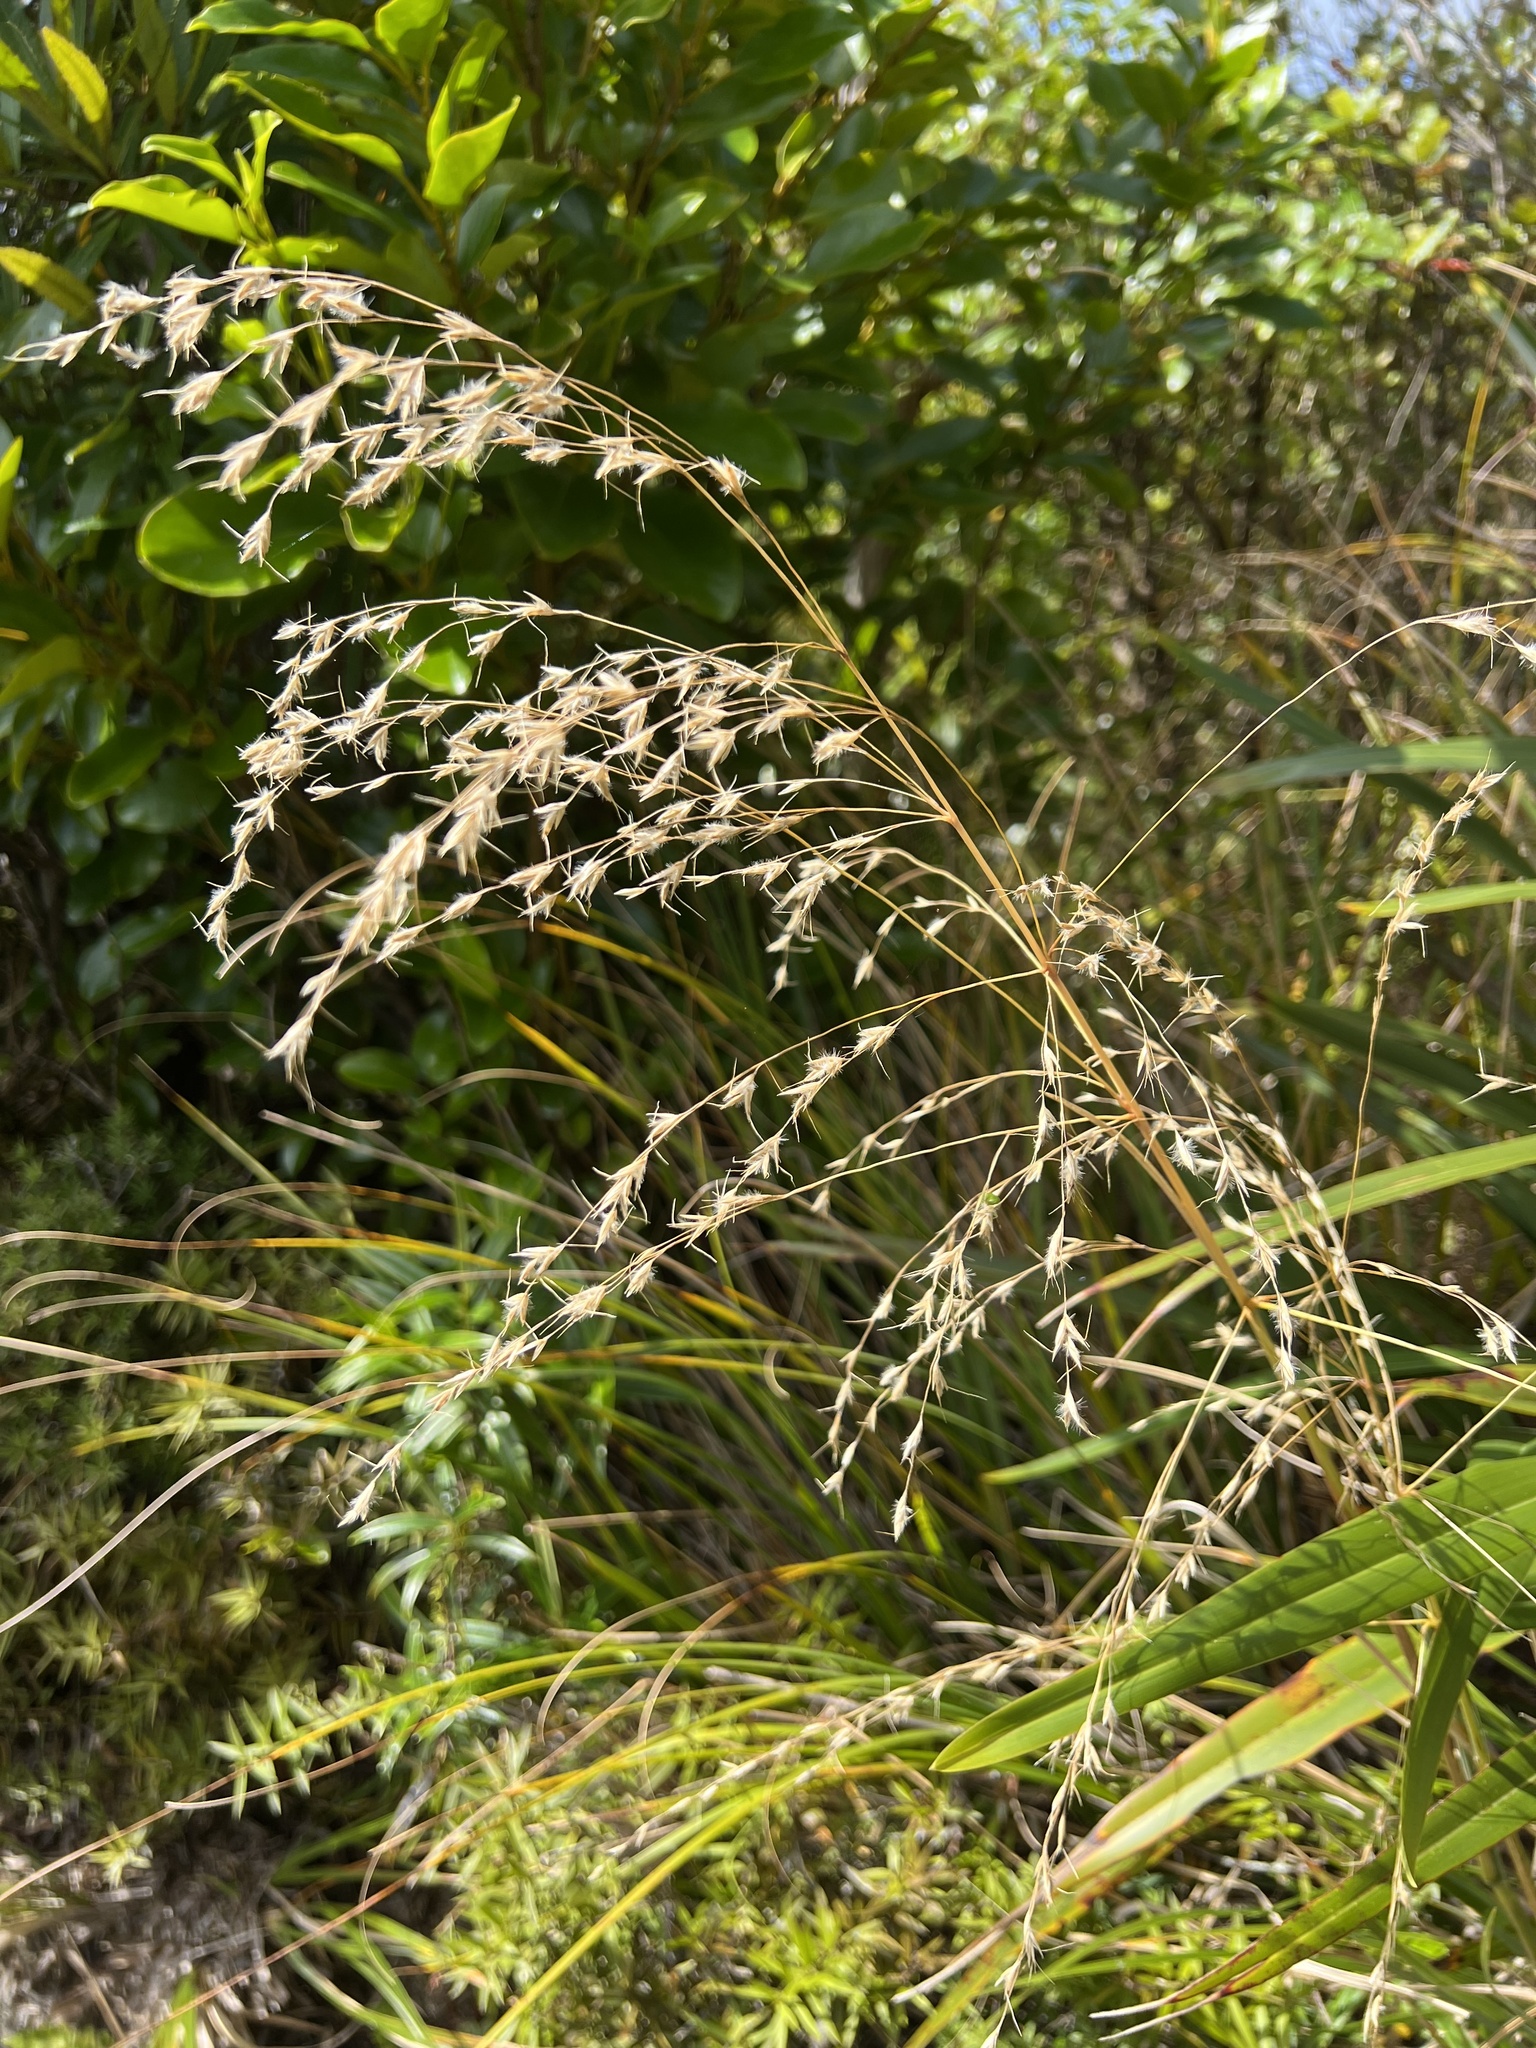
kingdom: Plantae
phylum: Tracheophyta
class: Liliopsida
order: Poales
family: Poaceae
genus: Chionochloa
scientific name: Chionochloa conspicua
